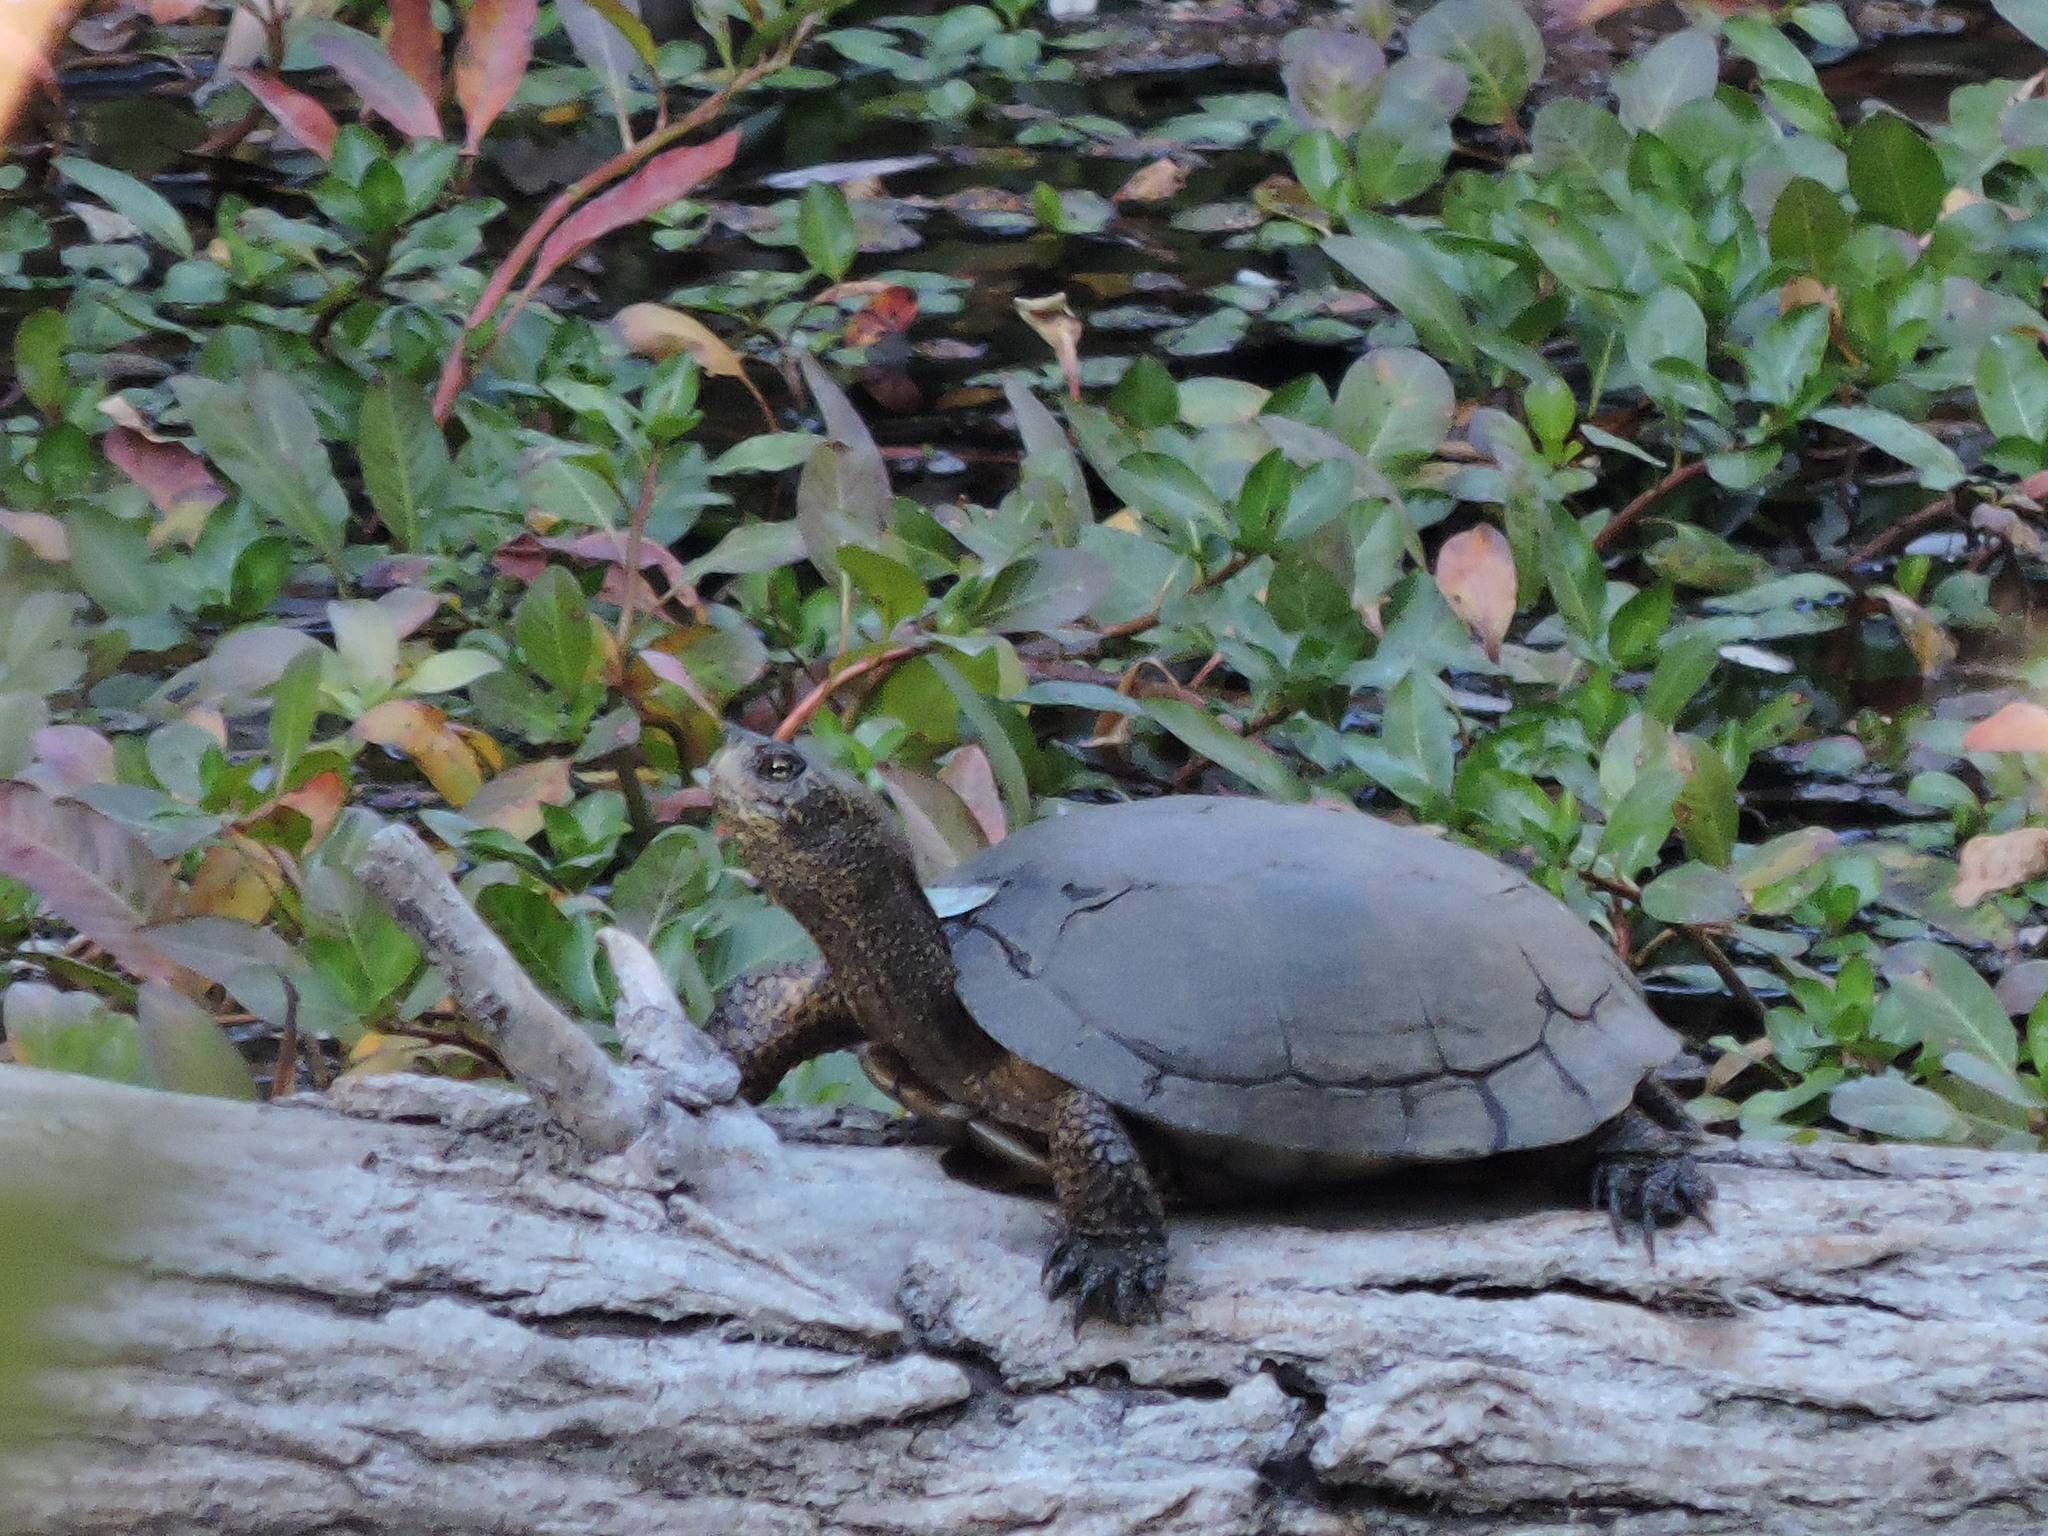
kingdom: Animalia
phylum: Chordata
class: Testudines
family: Emydidae
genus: Actinemys
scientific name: Actinemys marmorata
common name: Western pond turtle
